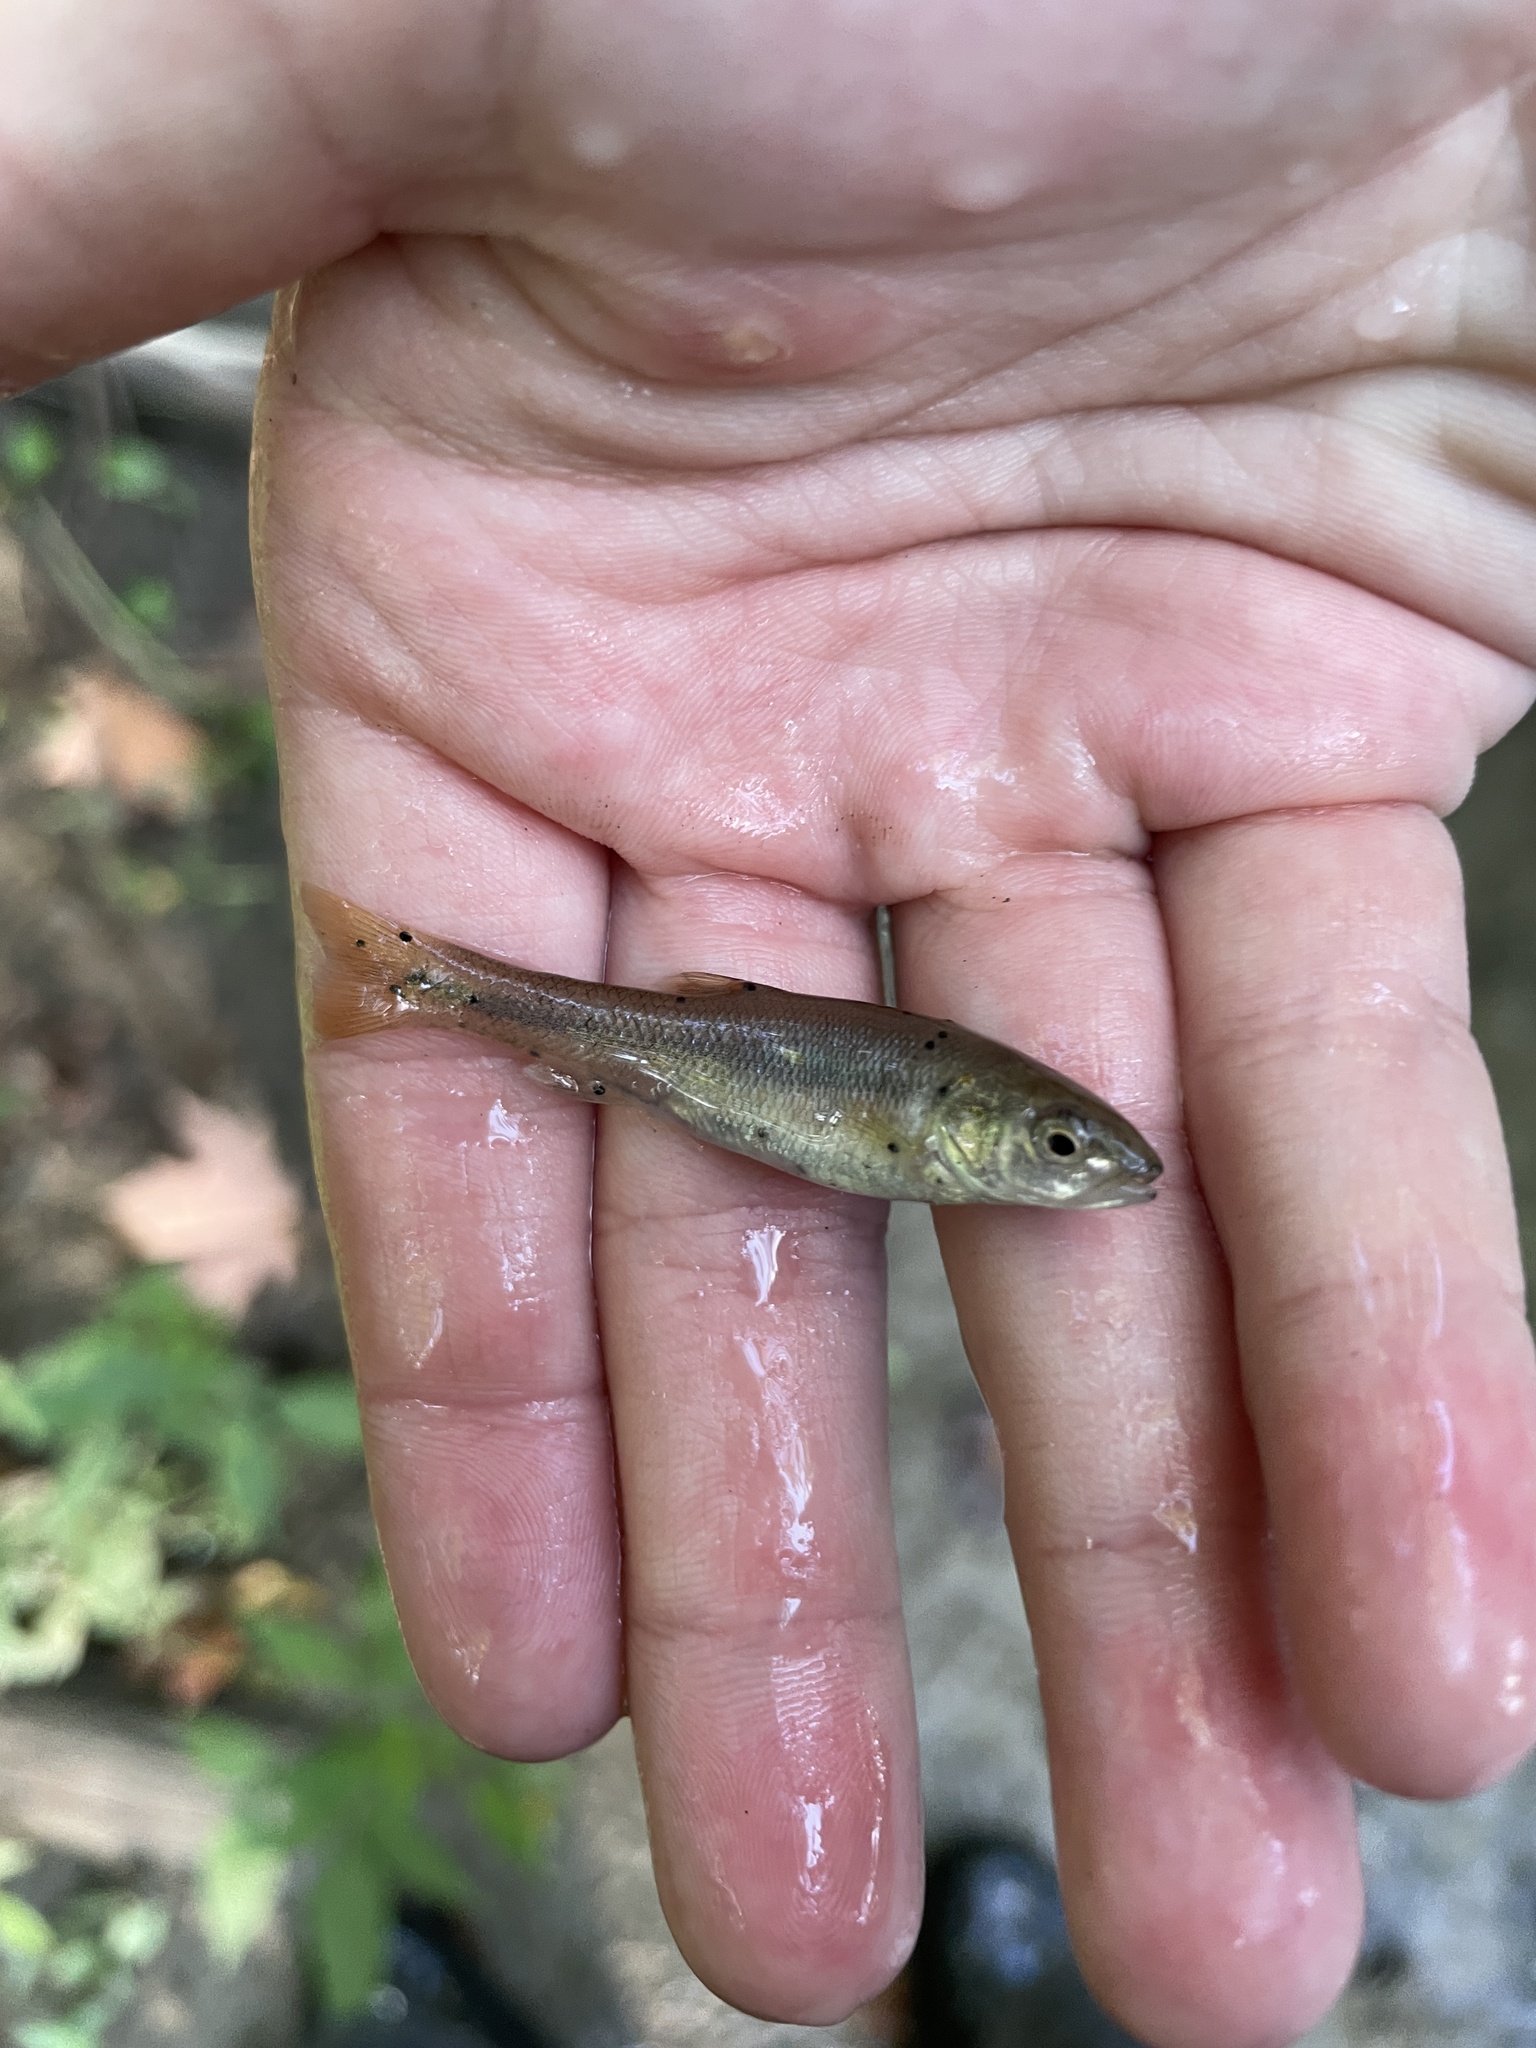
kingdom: Animalia
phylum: Chordata
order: Cypriniformes
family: Cyprinidae
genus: Semotilus
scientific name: Semotilus atromaculatus
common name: Creek chub
